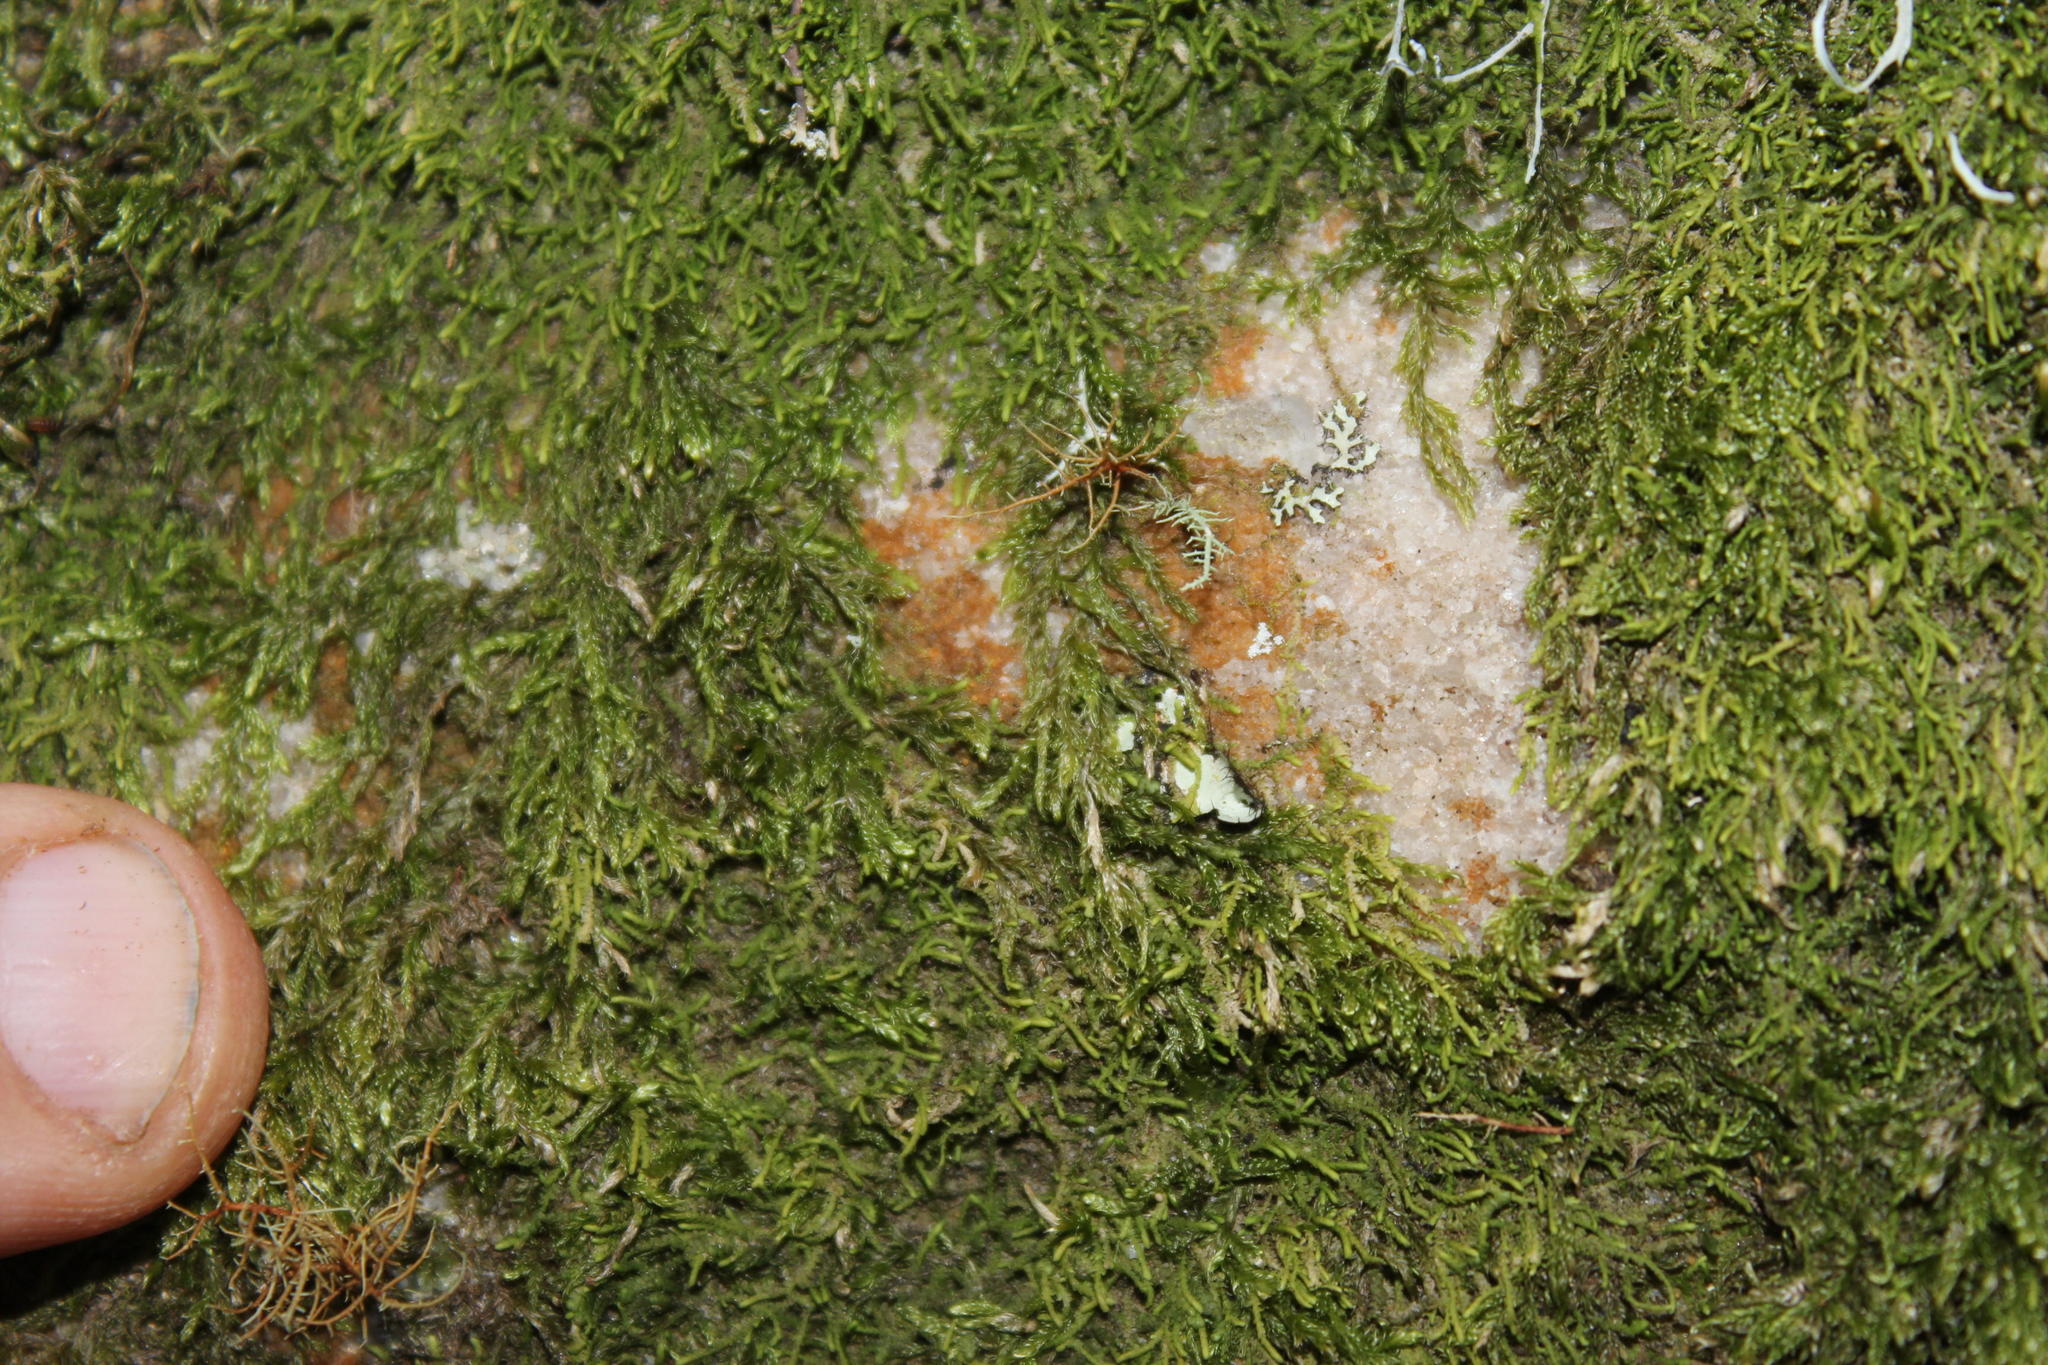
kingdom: Plantae
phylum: Bryophyta
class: Bryopsida
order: Hypnales
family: Hypnaceae
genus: Hypnum
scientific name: Hypnum cupressiforme
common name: Cypress-leaved plait-moss
